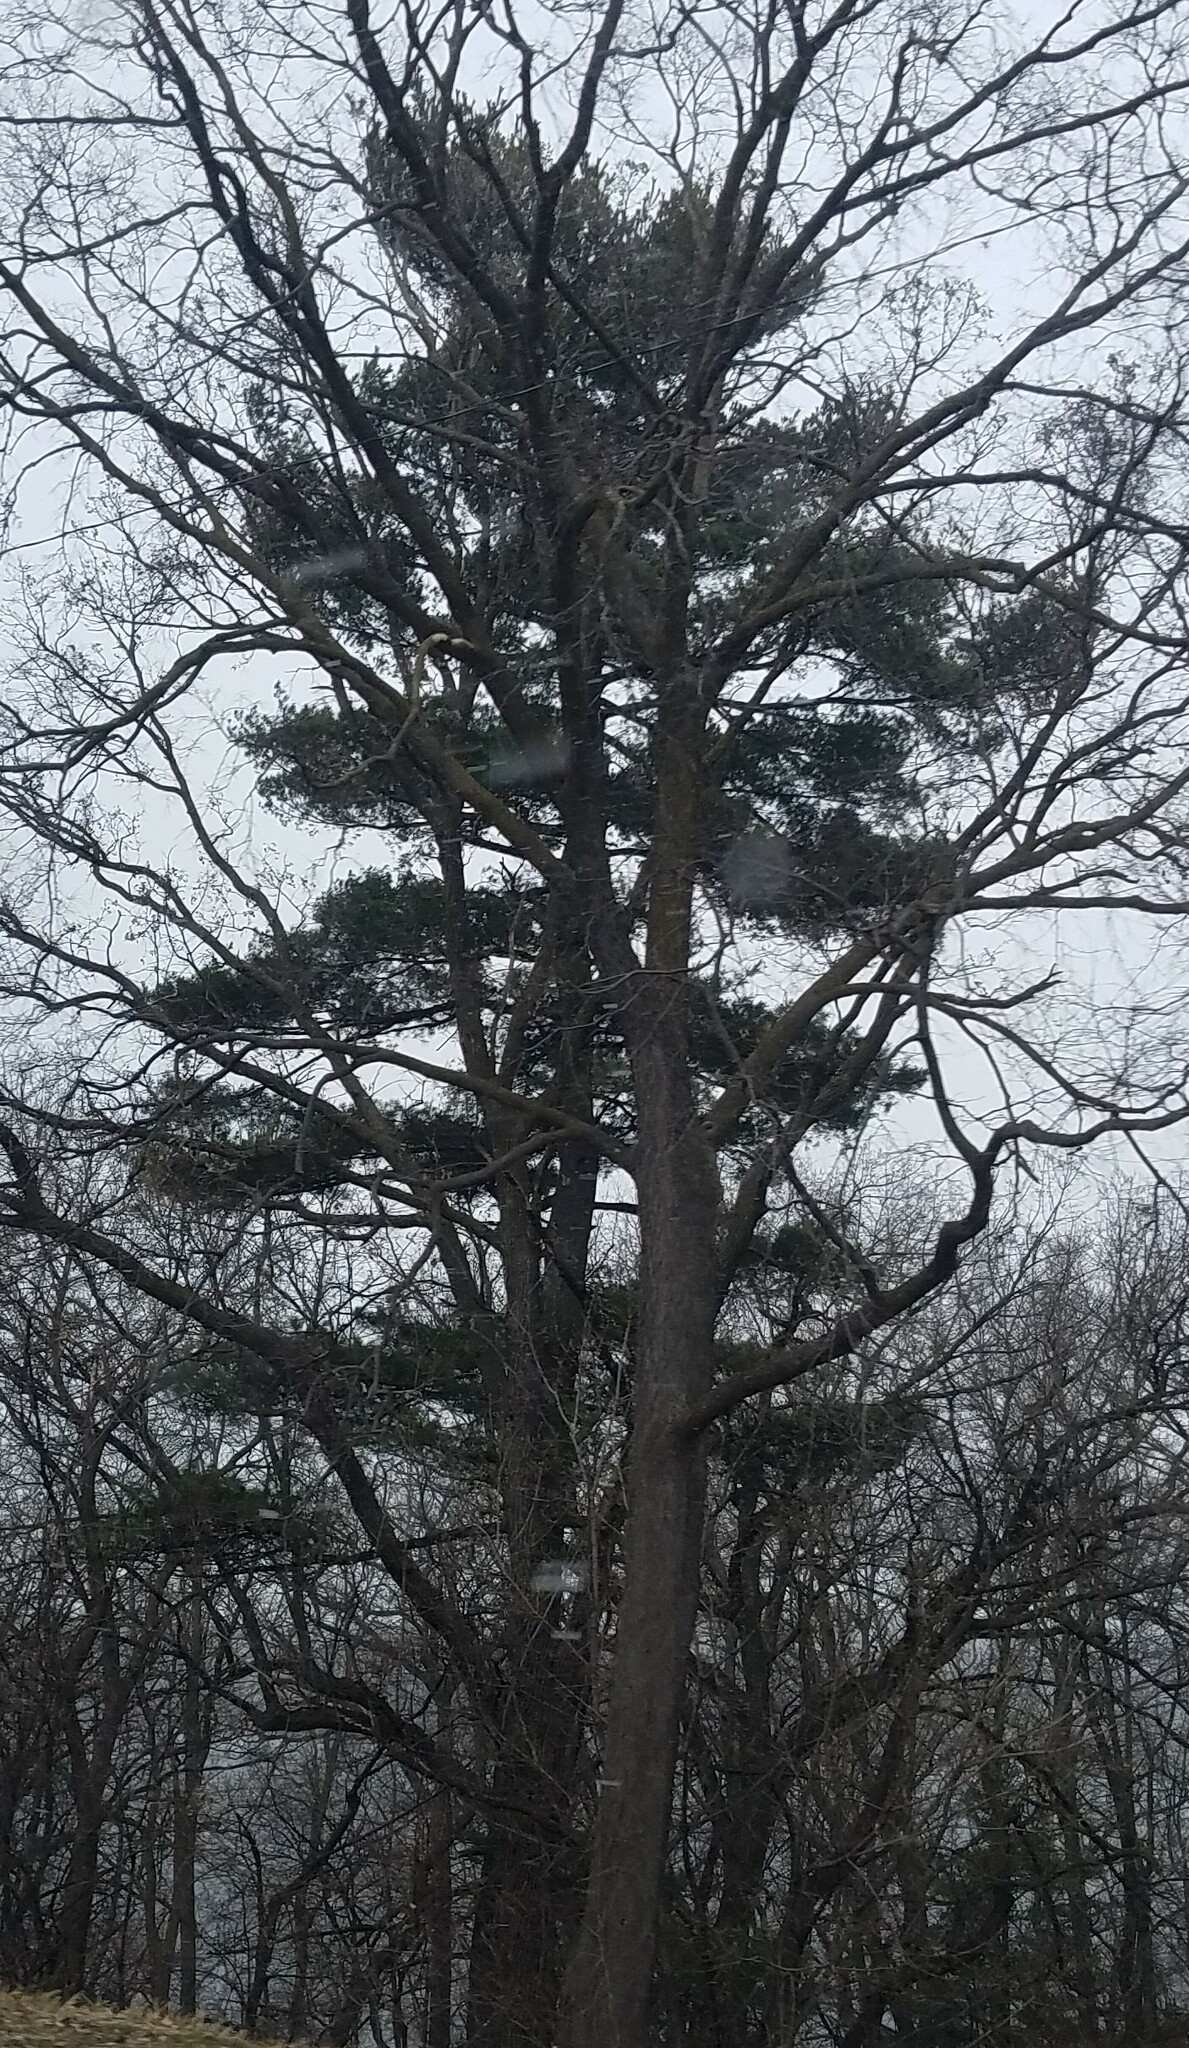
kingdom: Plantae
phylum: Tracheophyta
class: Pinopsida
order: Pinales
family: Pinaceae
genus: Pinus
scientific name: Pinus strobus
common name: Weymouth pine
